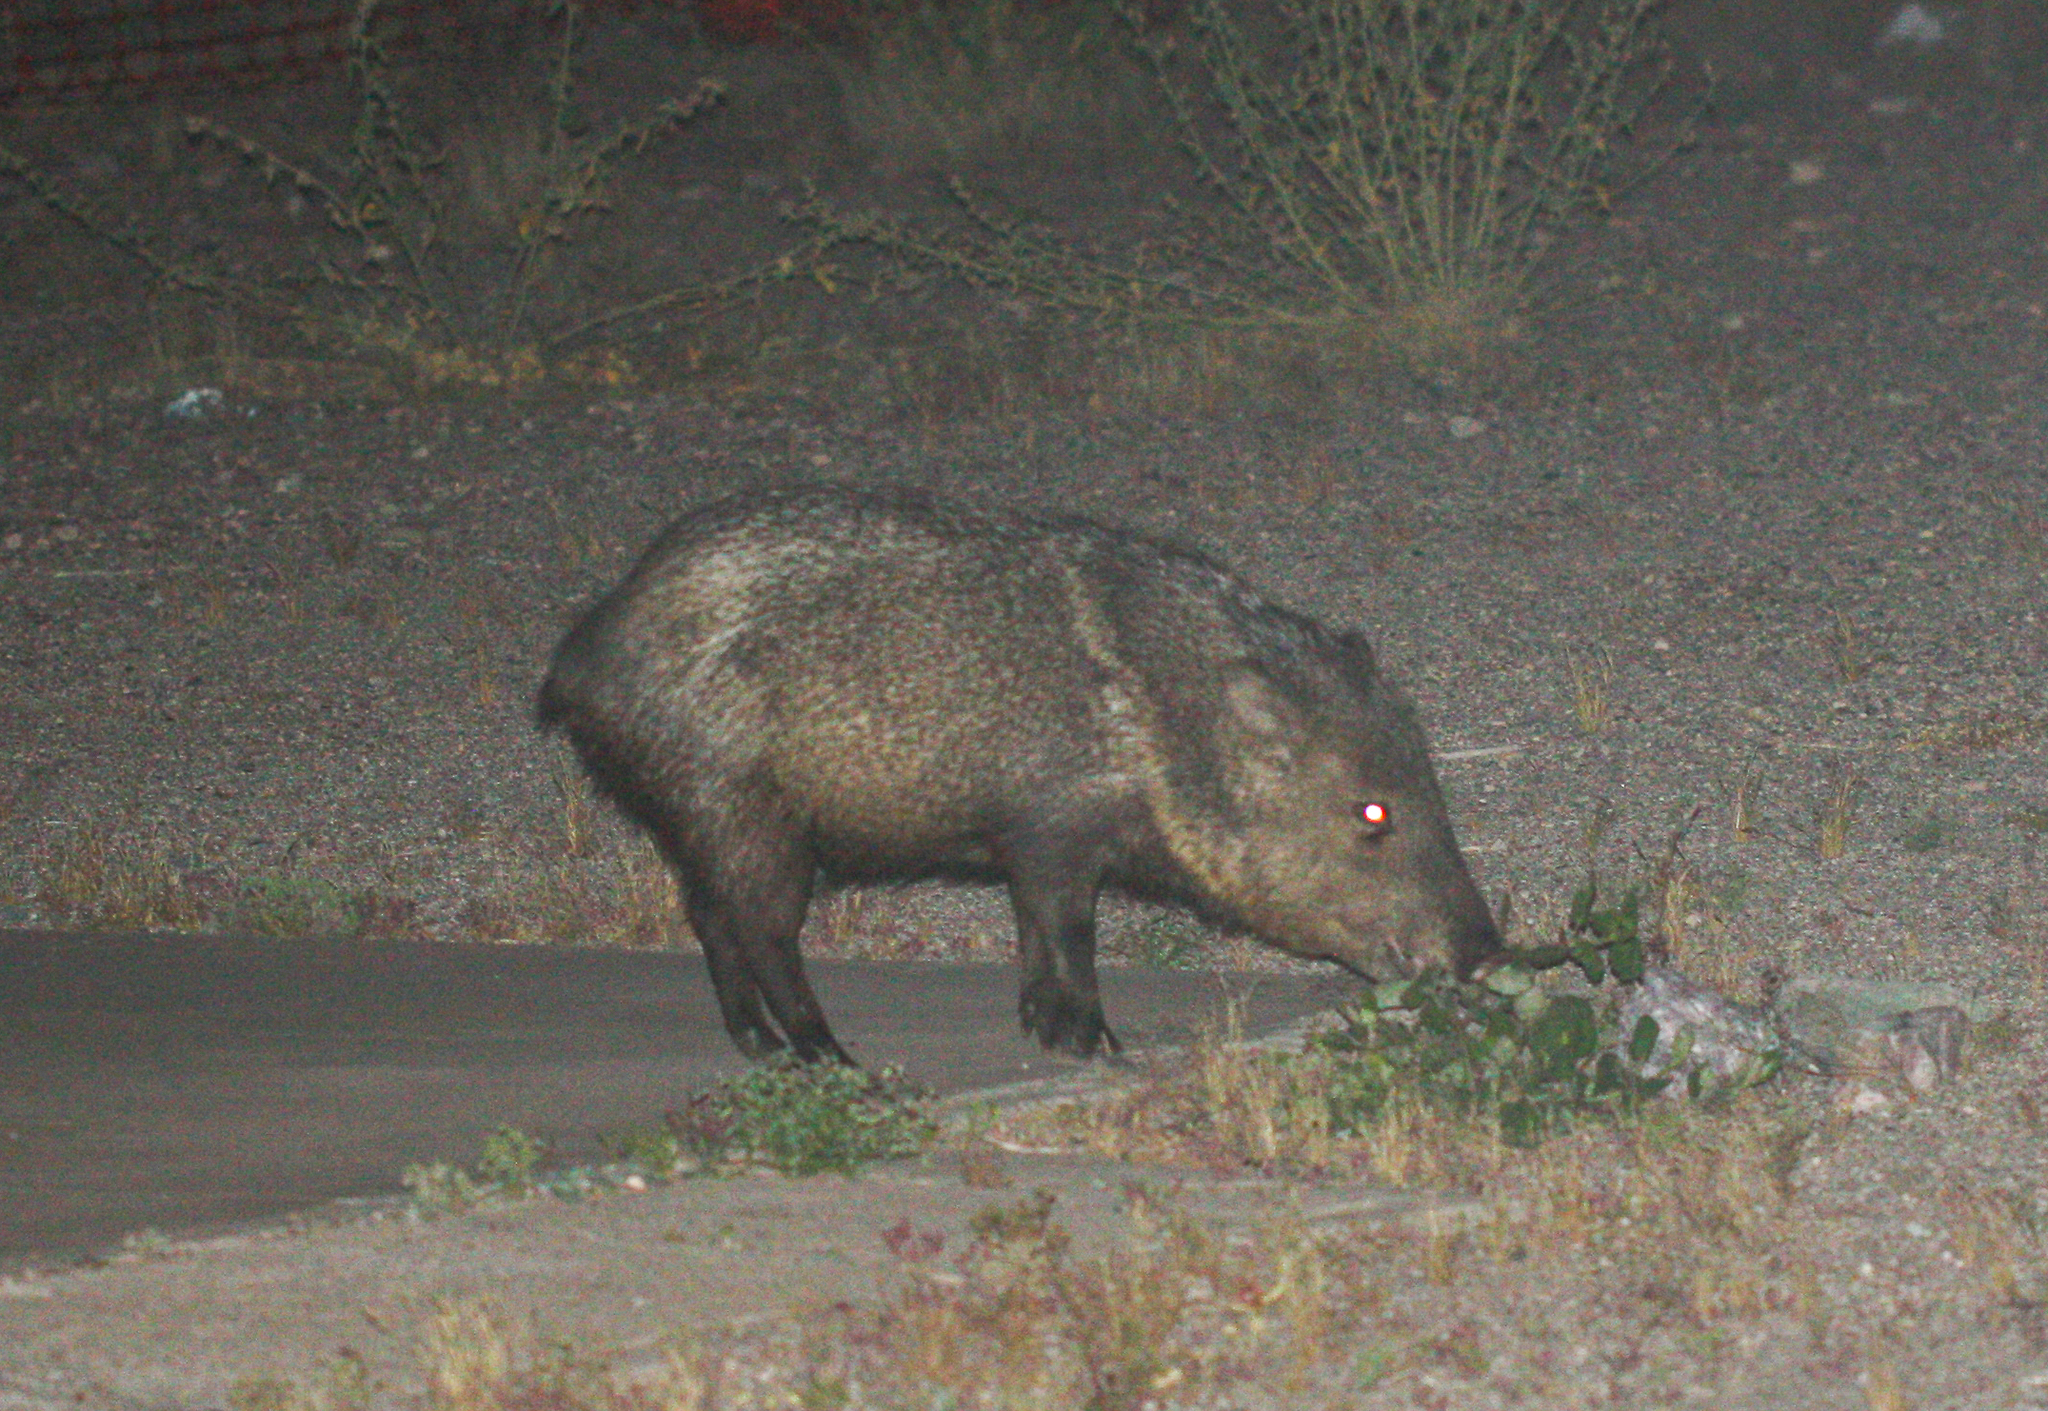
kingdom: Animalia
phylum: Chordata
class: Mammalia
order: Artiodactyla
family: Tayassuidae
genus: Pecari
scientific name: Pecari tajacu
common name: Collared peccary
